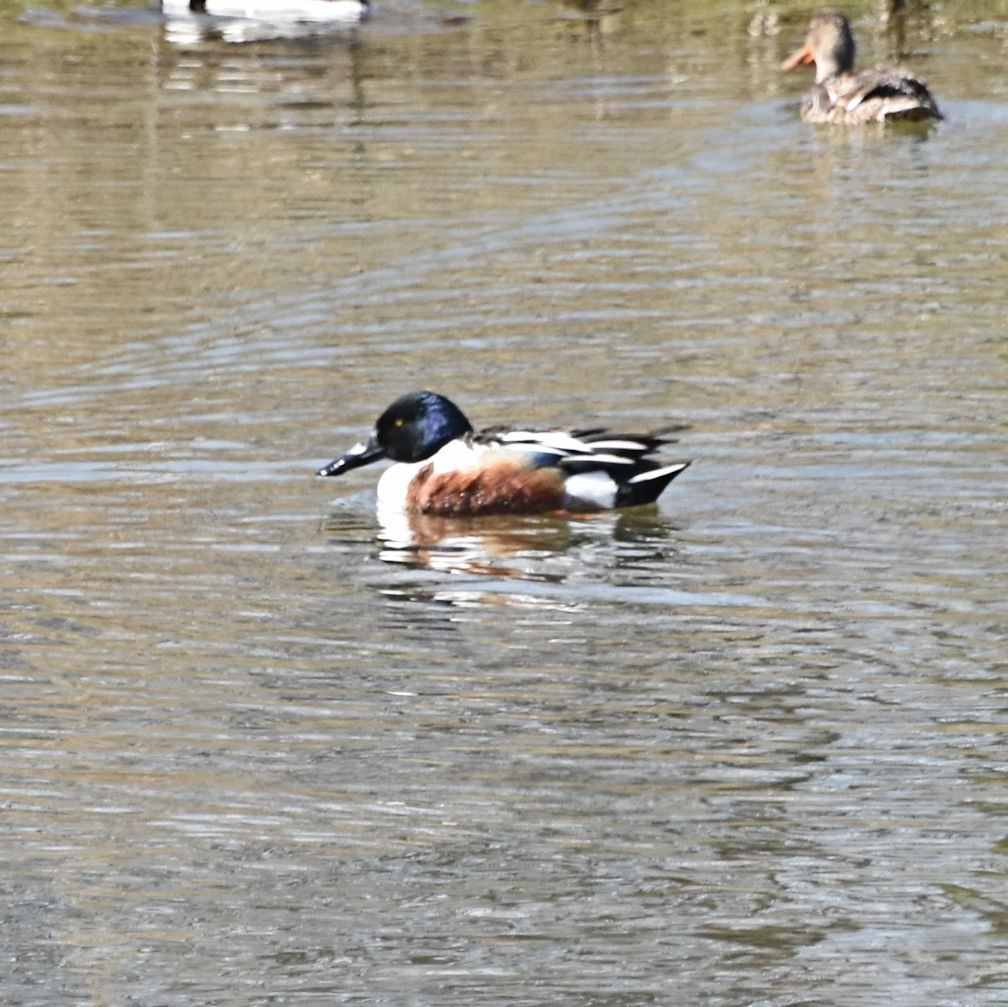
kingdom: Animalia
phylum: Chordata
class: Aves
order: Anseriformes
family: Anatidae
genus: Spatula
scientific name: Spatula clypeata
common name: Northern shoveler
